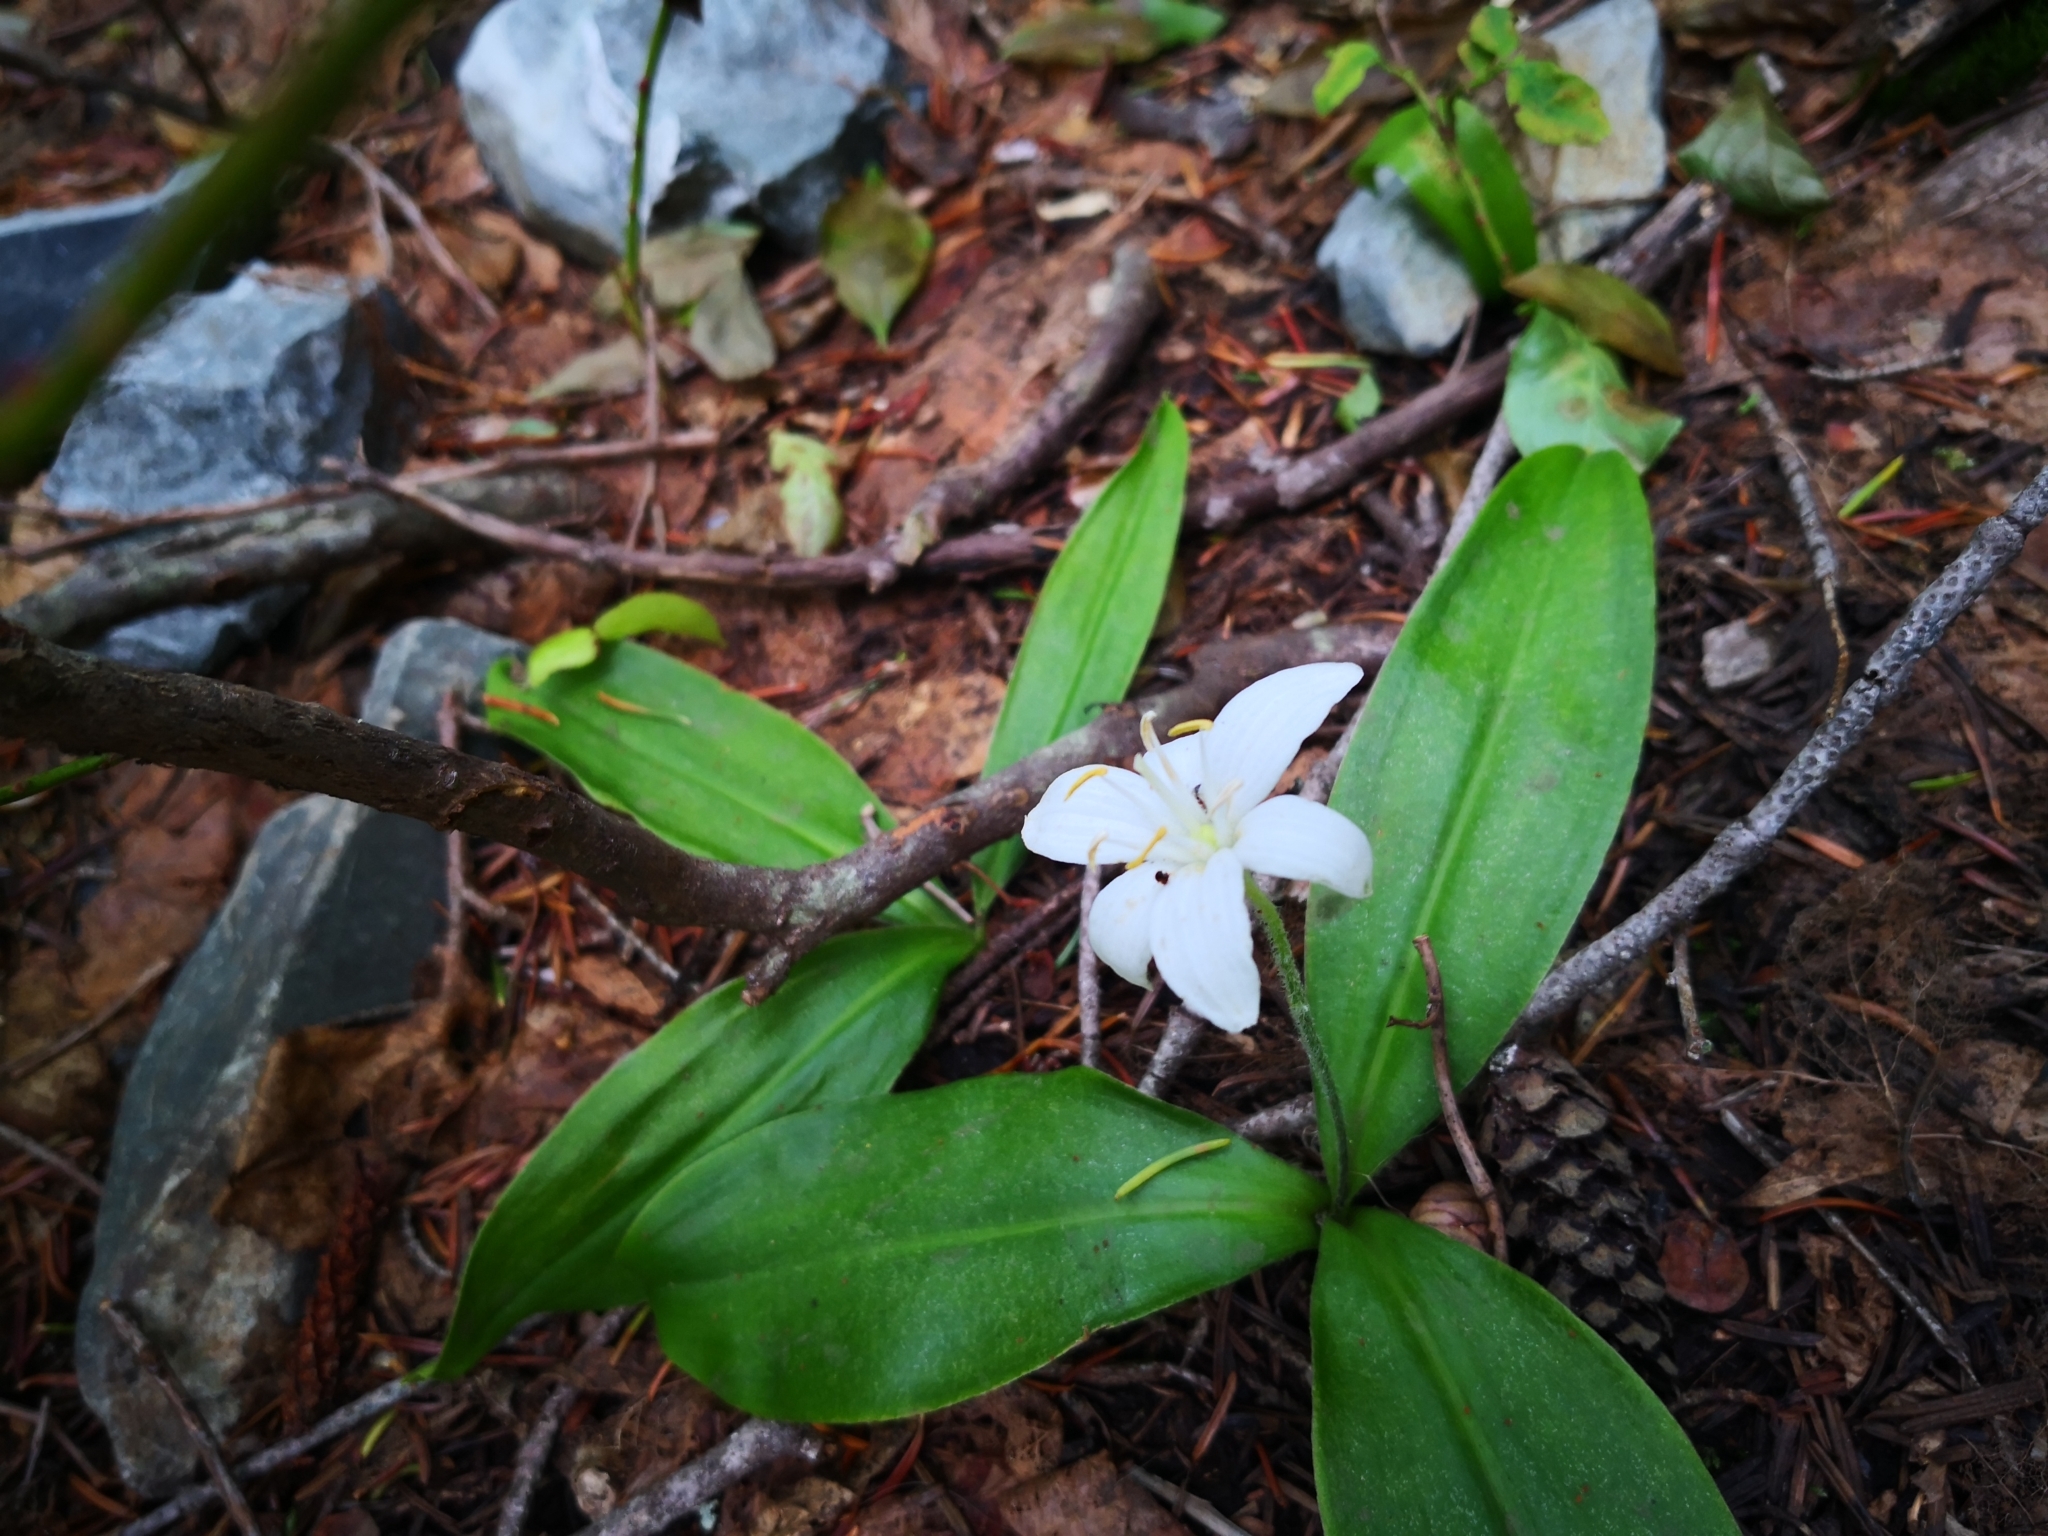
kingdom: Plantae
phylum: Tracheophyta
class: Liliopsida
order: Liliales
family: Liliaceae
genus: Clintonia
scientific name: Clintonia uniflora
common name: Queen's cup
